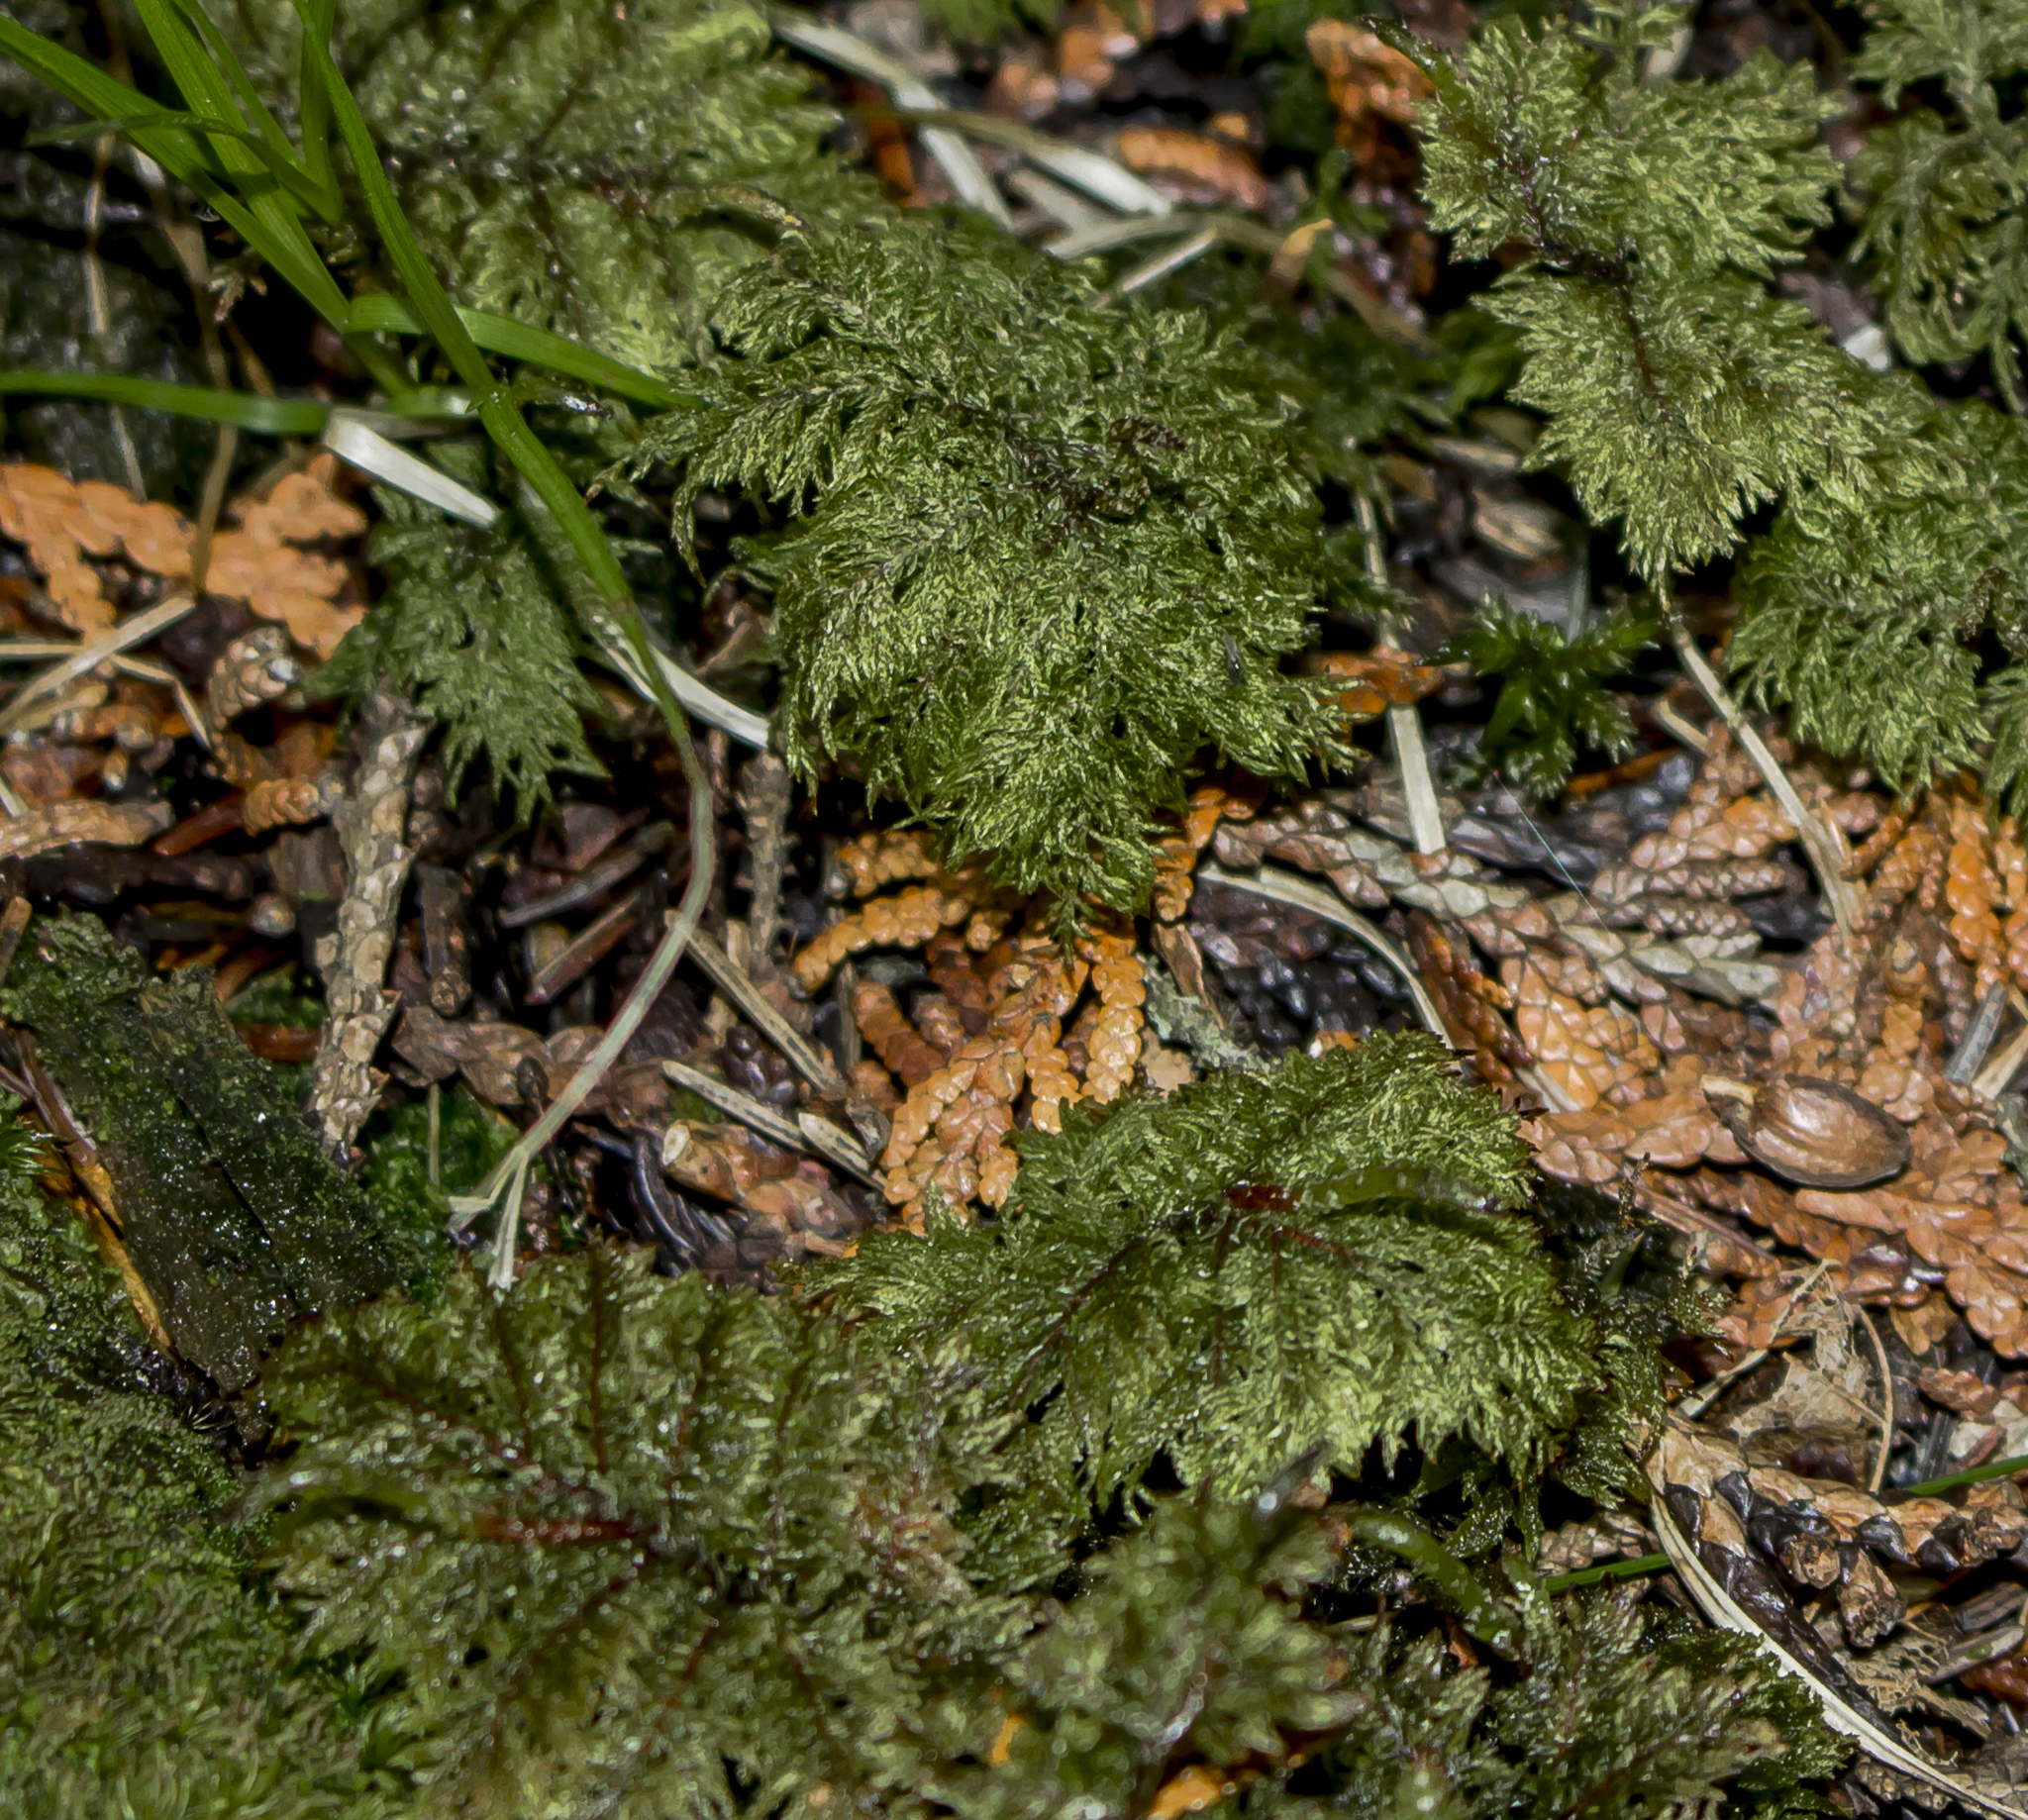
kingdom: Plantae
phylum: Bryophyta
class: Bryopsida
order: Hypnales
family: Hylocomiaceae
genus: Hylocomium
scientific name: Hylocomium splendens
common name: Stairstep moss
